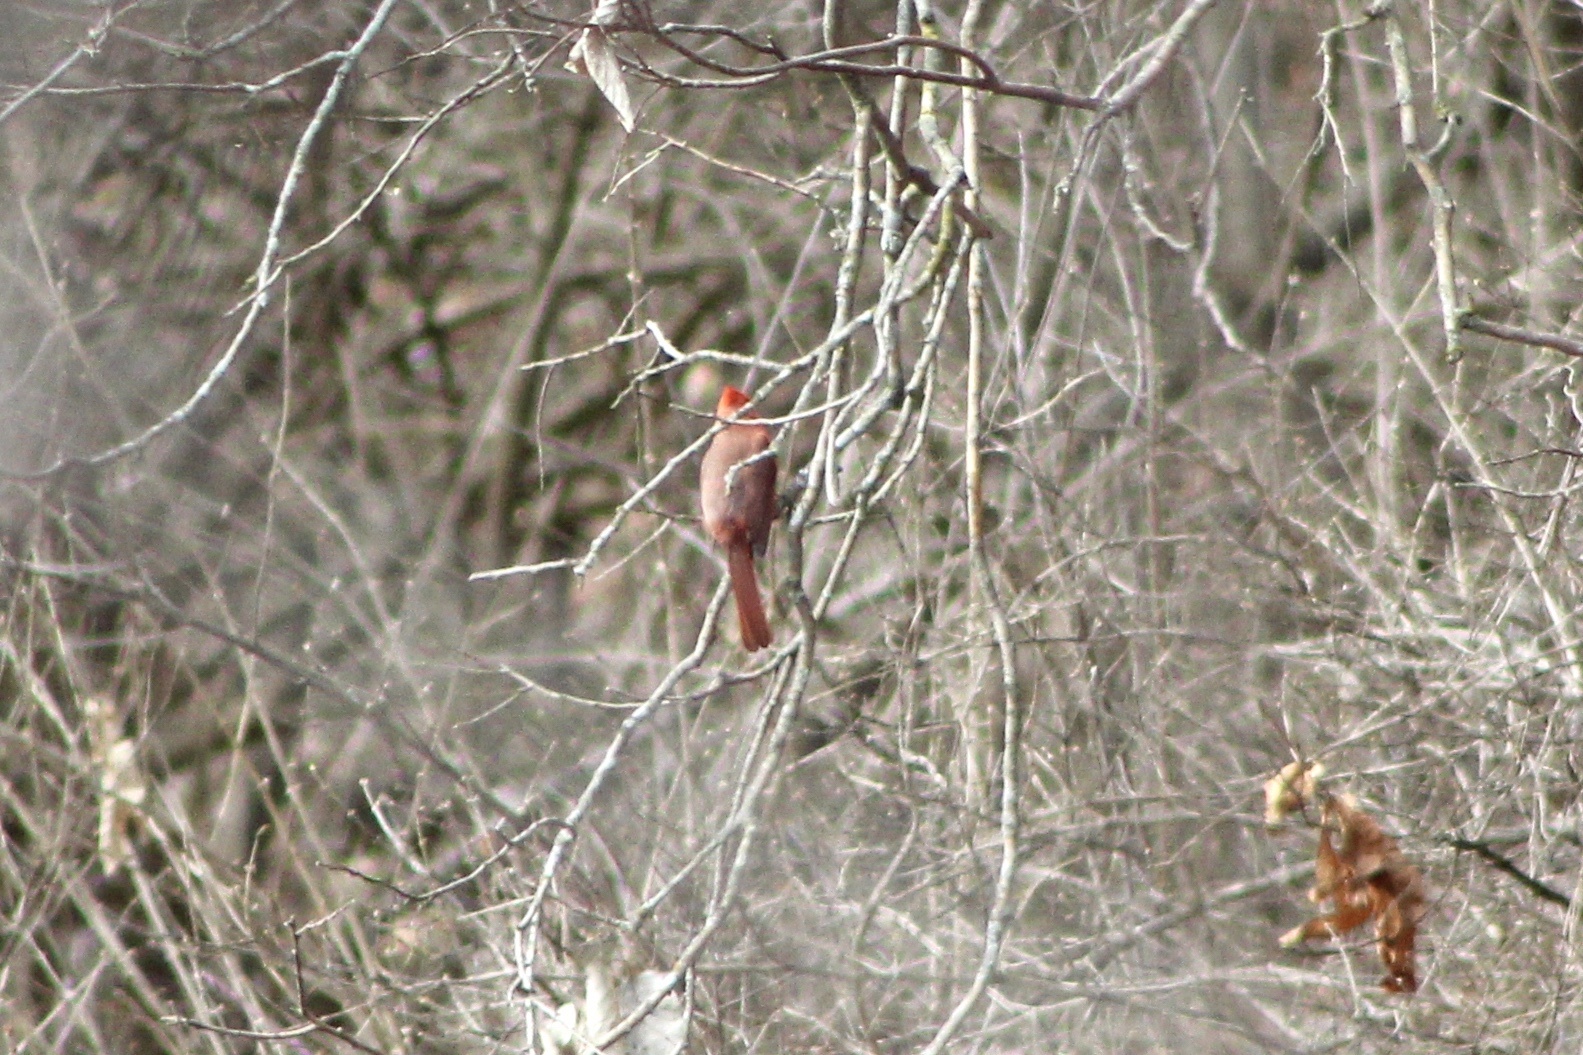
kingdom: Animalia
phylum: Chordata
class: Aves
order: Passeriformes
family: Cardinalidae
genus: Cardinalis
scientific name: Cardinalis cardinalis
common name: Northern cardinal
